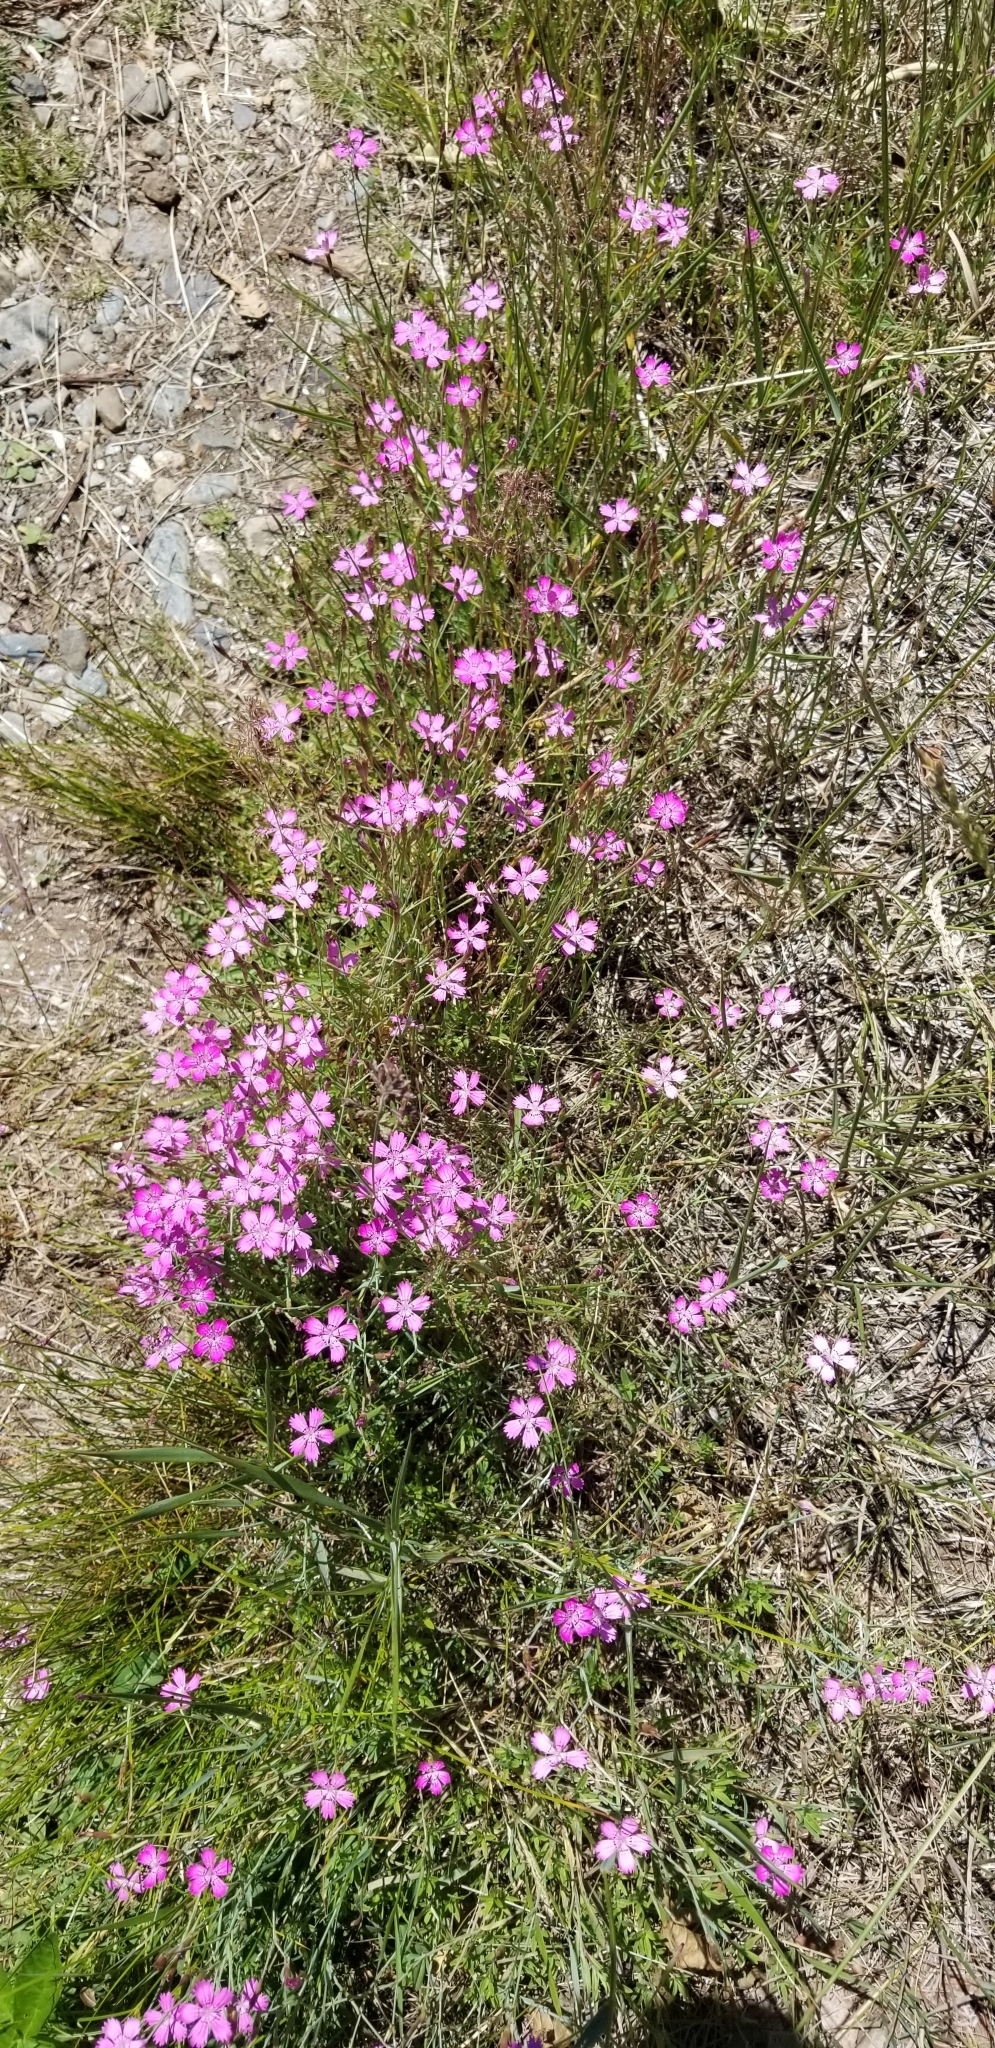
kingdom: Plantae
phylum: Tracheophyta
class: Magnoliopsida
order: Caryophyllales
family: Caryophyllaceae
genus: Dianthus
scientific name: Dianthus deltoides
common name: Maiden pink
